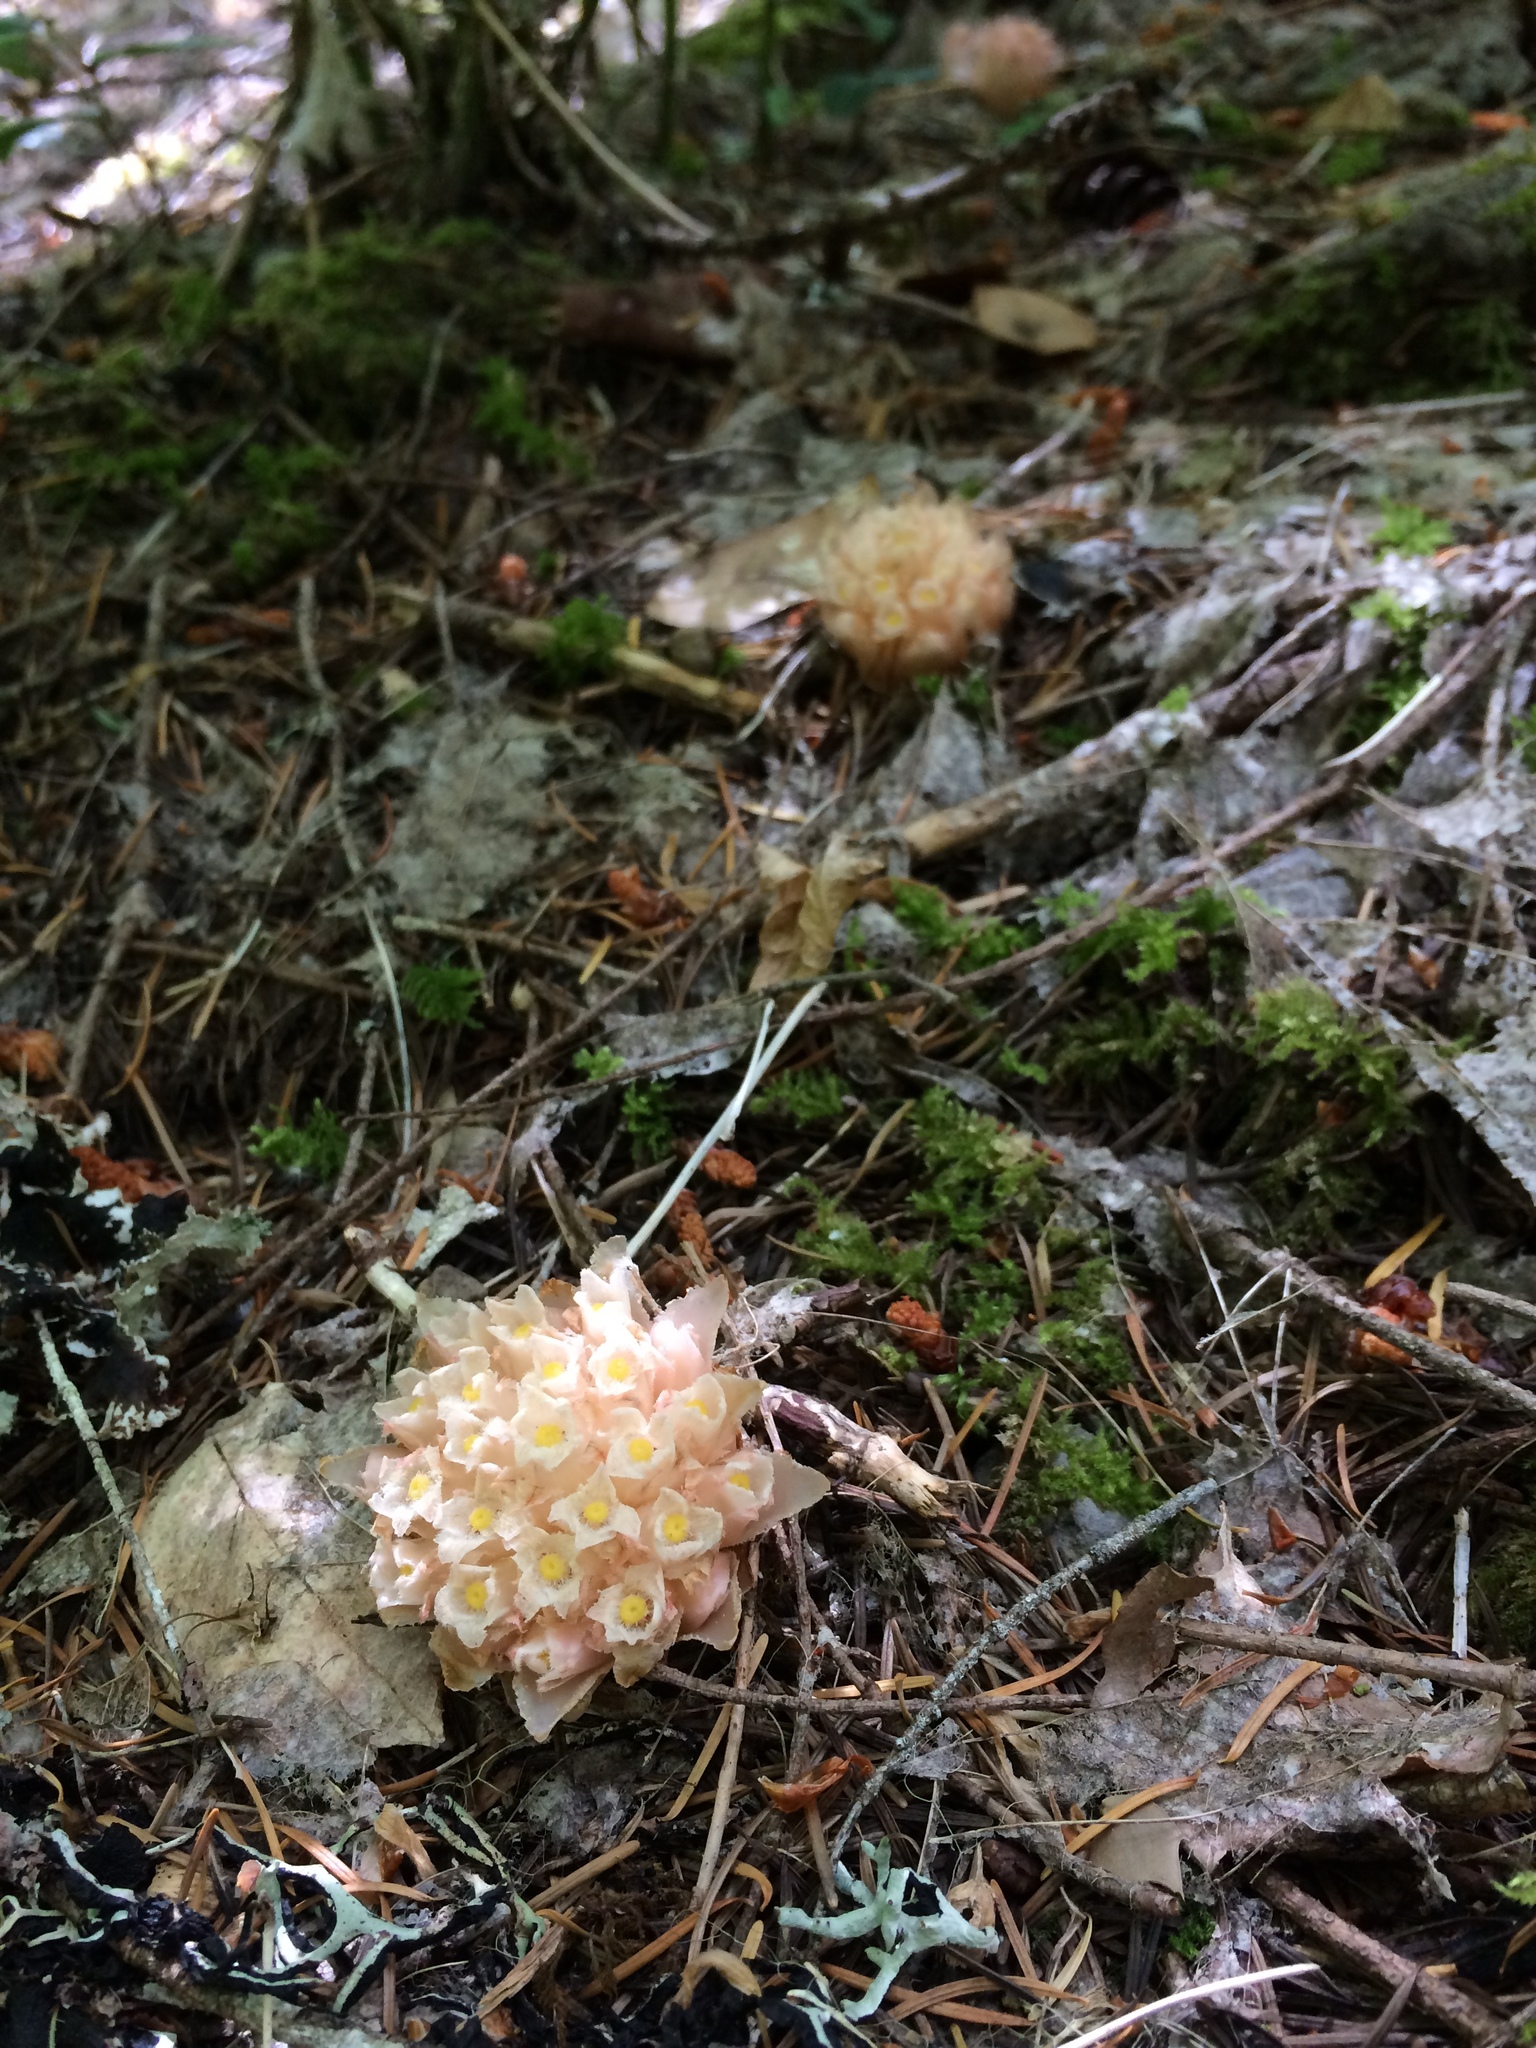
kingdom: Plantae
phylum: Tracheophyta
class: Magnoliopsida
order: Ericales
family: Ericaceae
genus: Hemitomes
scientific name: Hemitomes congestum
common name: Cone plant
